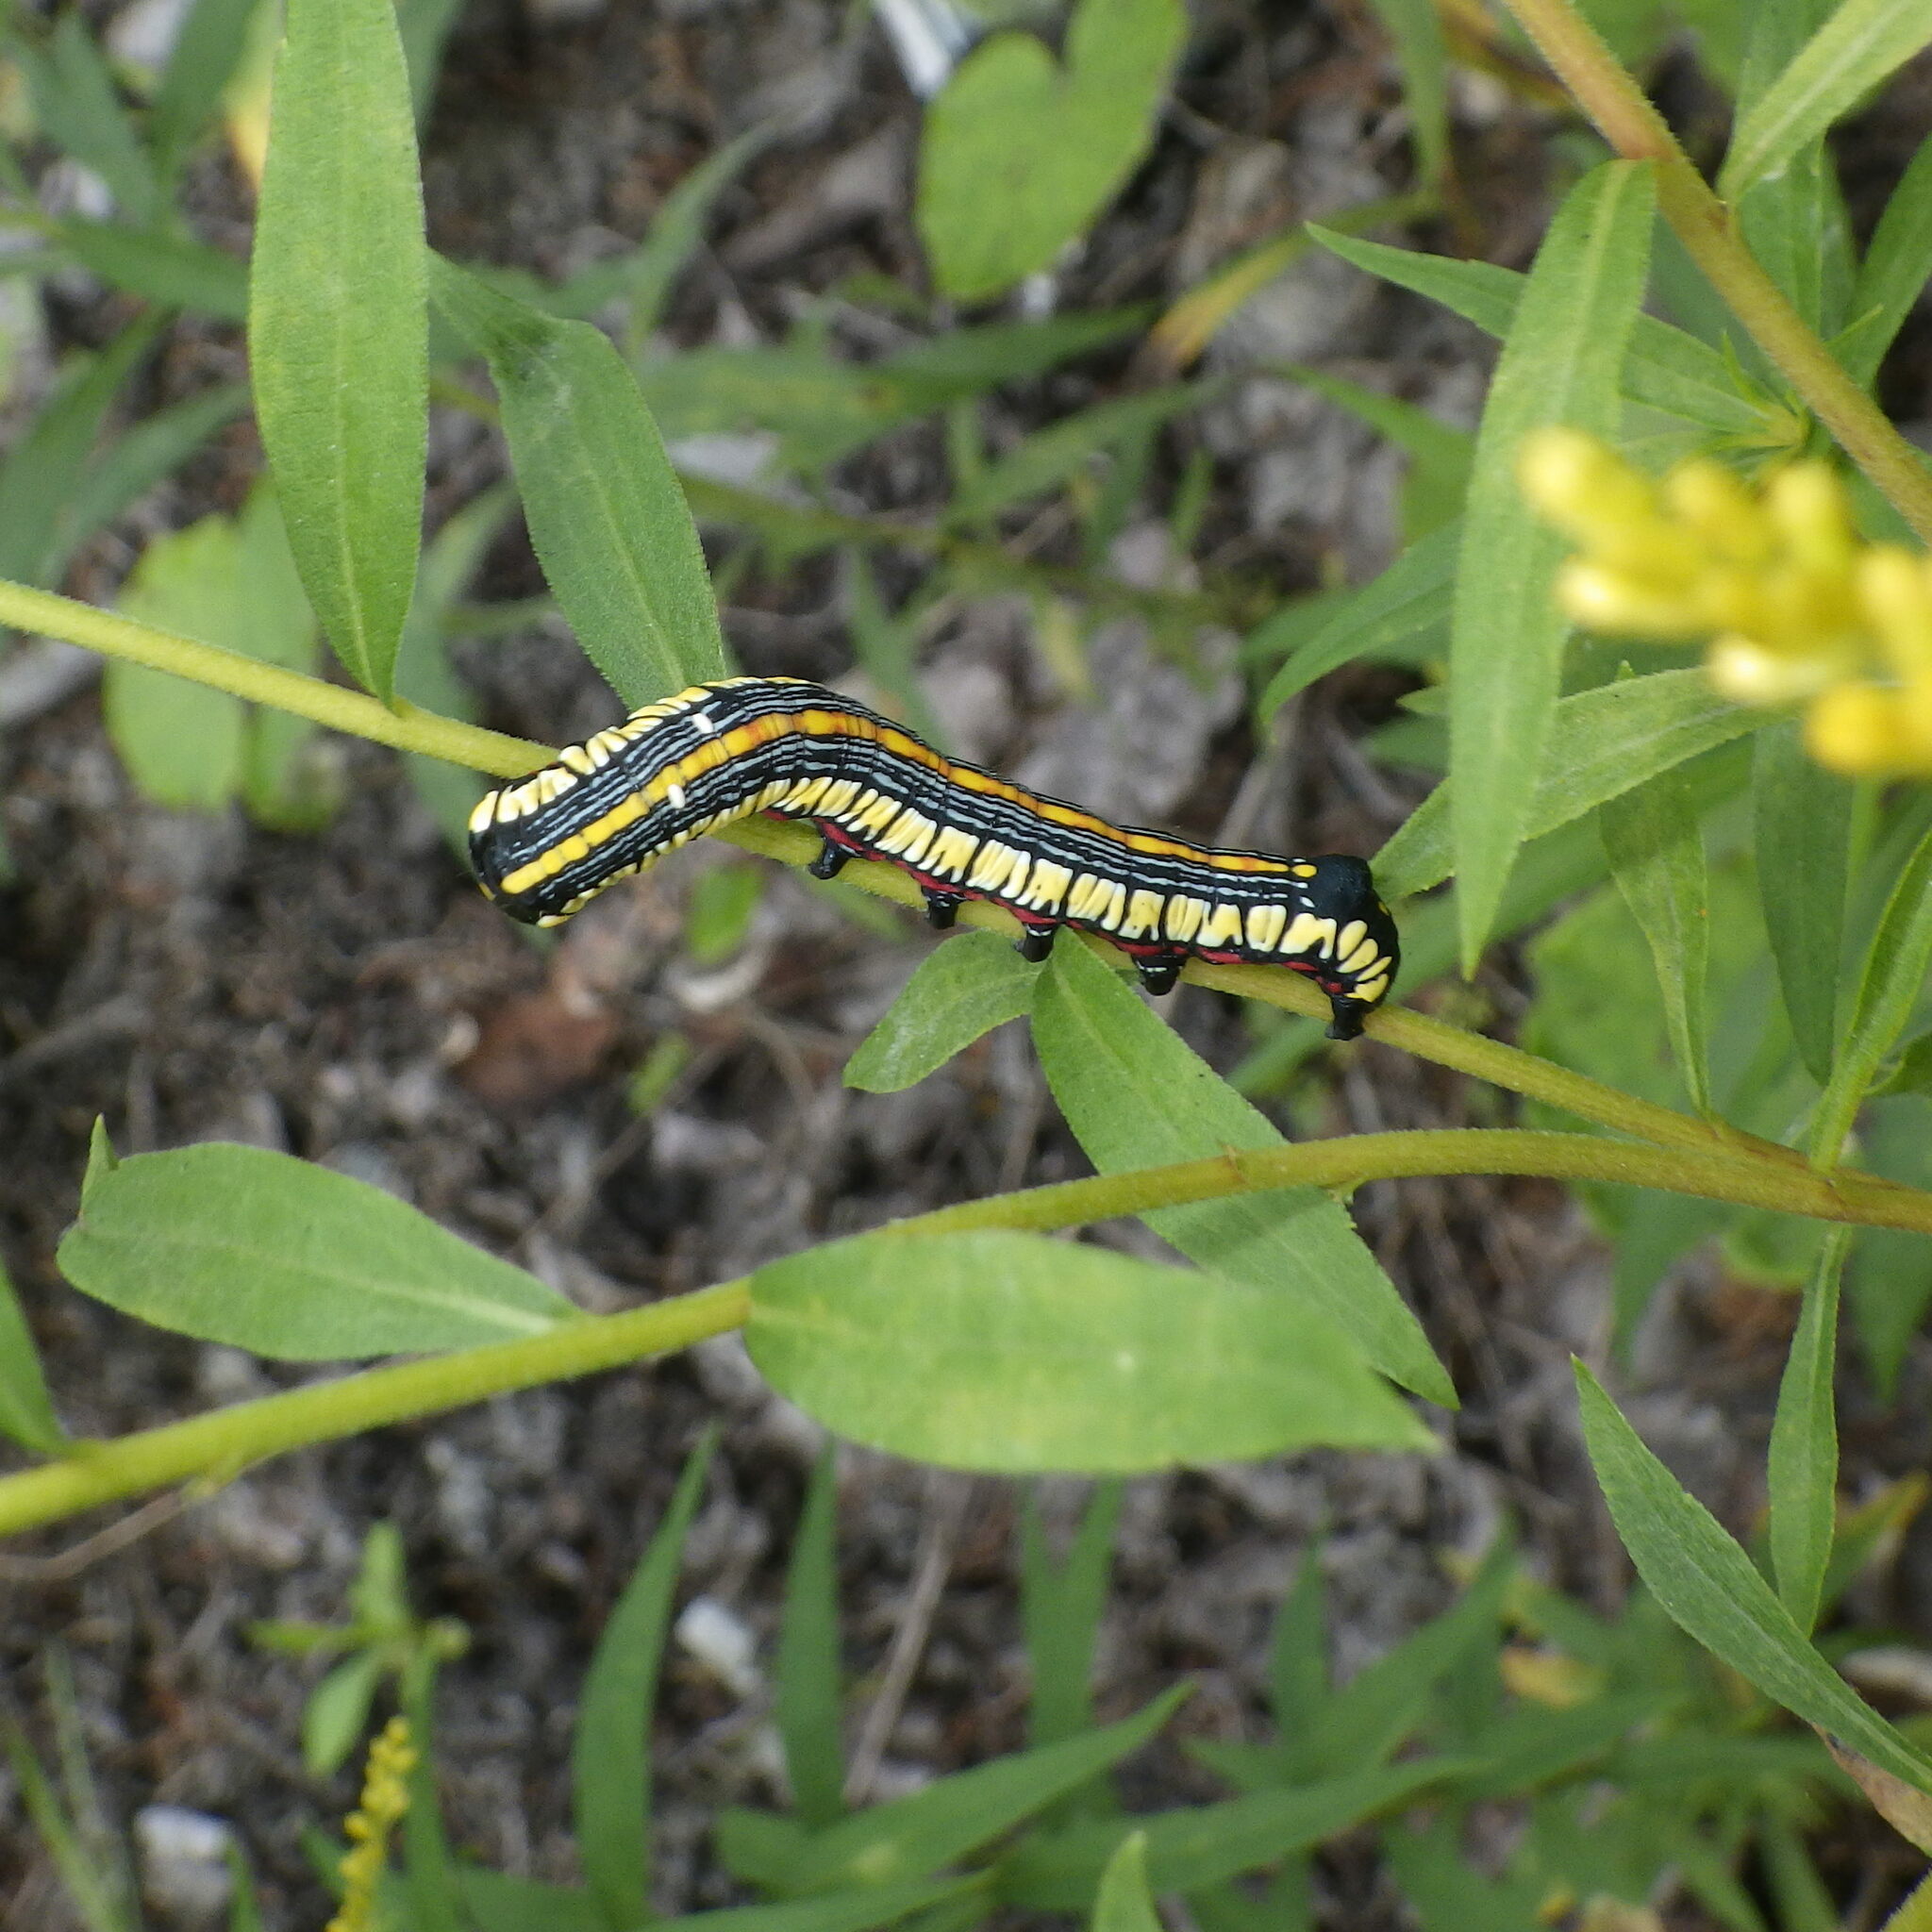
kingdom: Animalia
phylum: Arthropoda
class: Insecta
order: Lepidoptera
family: Noctuidae
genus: Cucullia
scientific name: Cucullia convexipennis
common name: Brown-hooded owlet
